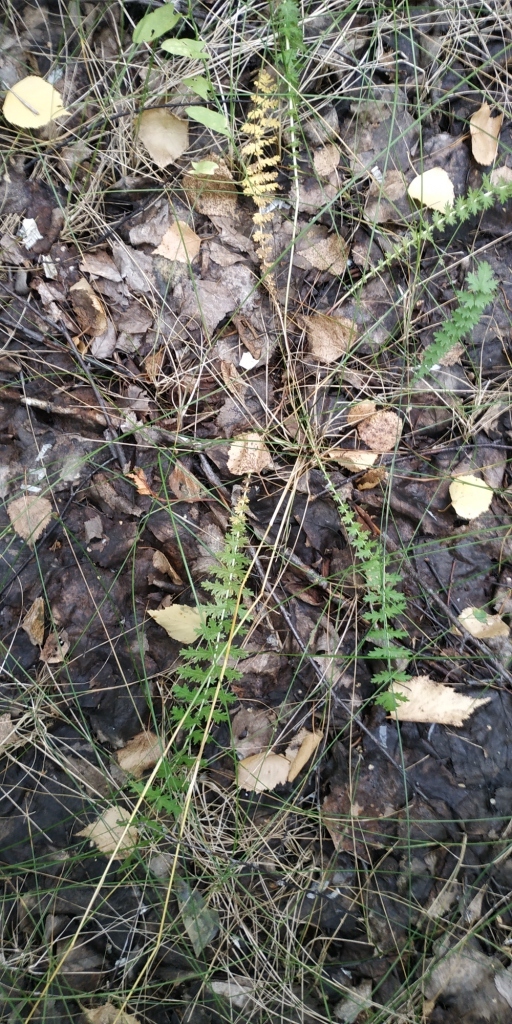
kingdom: Plantae
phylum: Tracheophyta
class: Magnoliopsida
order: Rosales
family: Rosaceae
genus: Filipendula
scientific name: Filipendula vulgaris
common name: Dropwort
